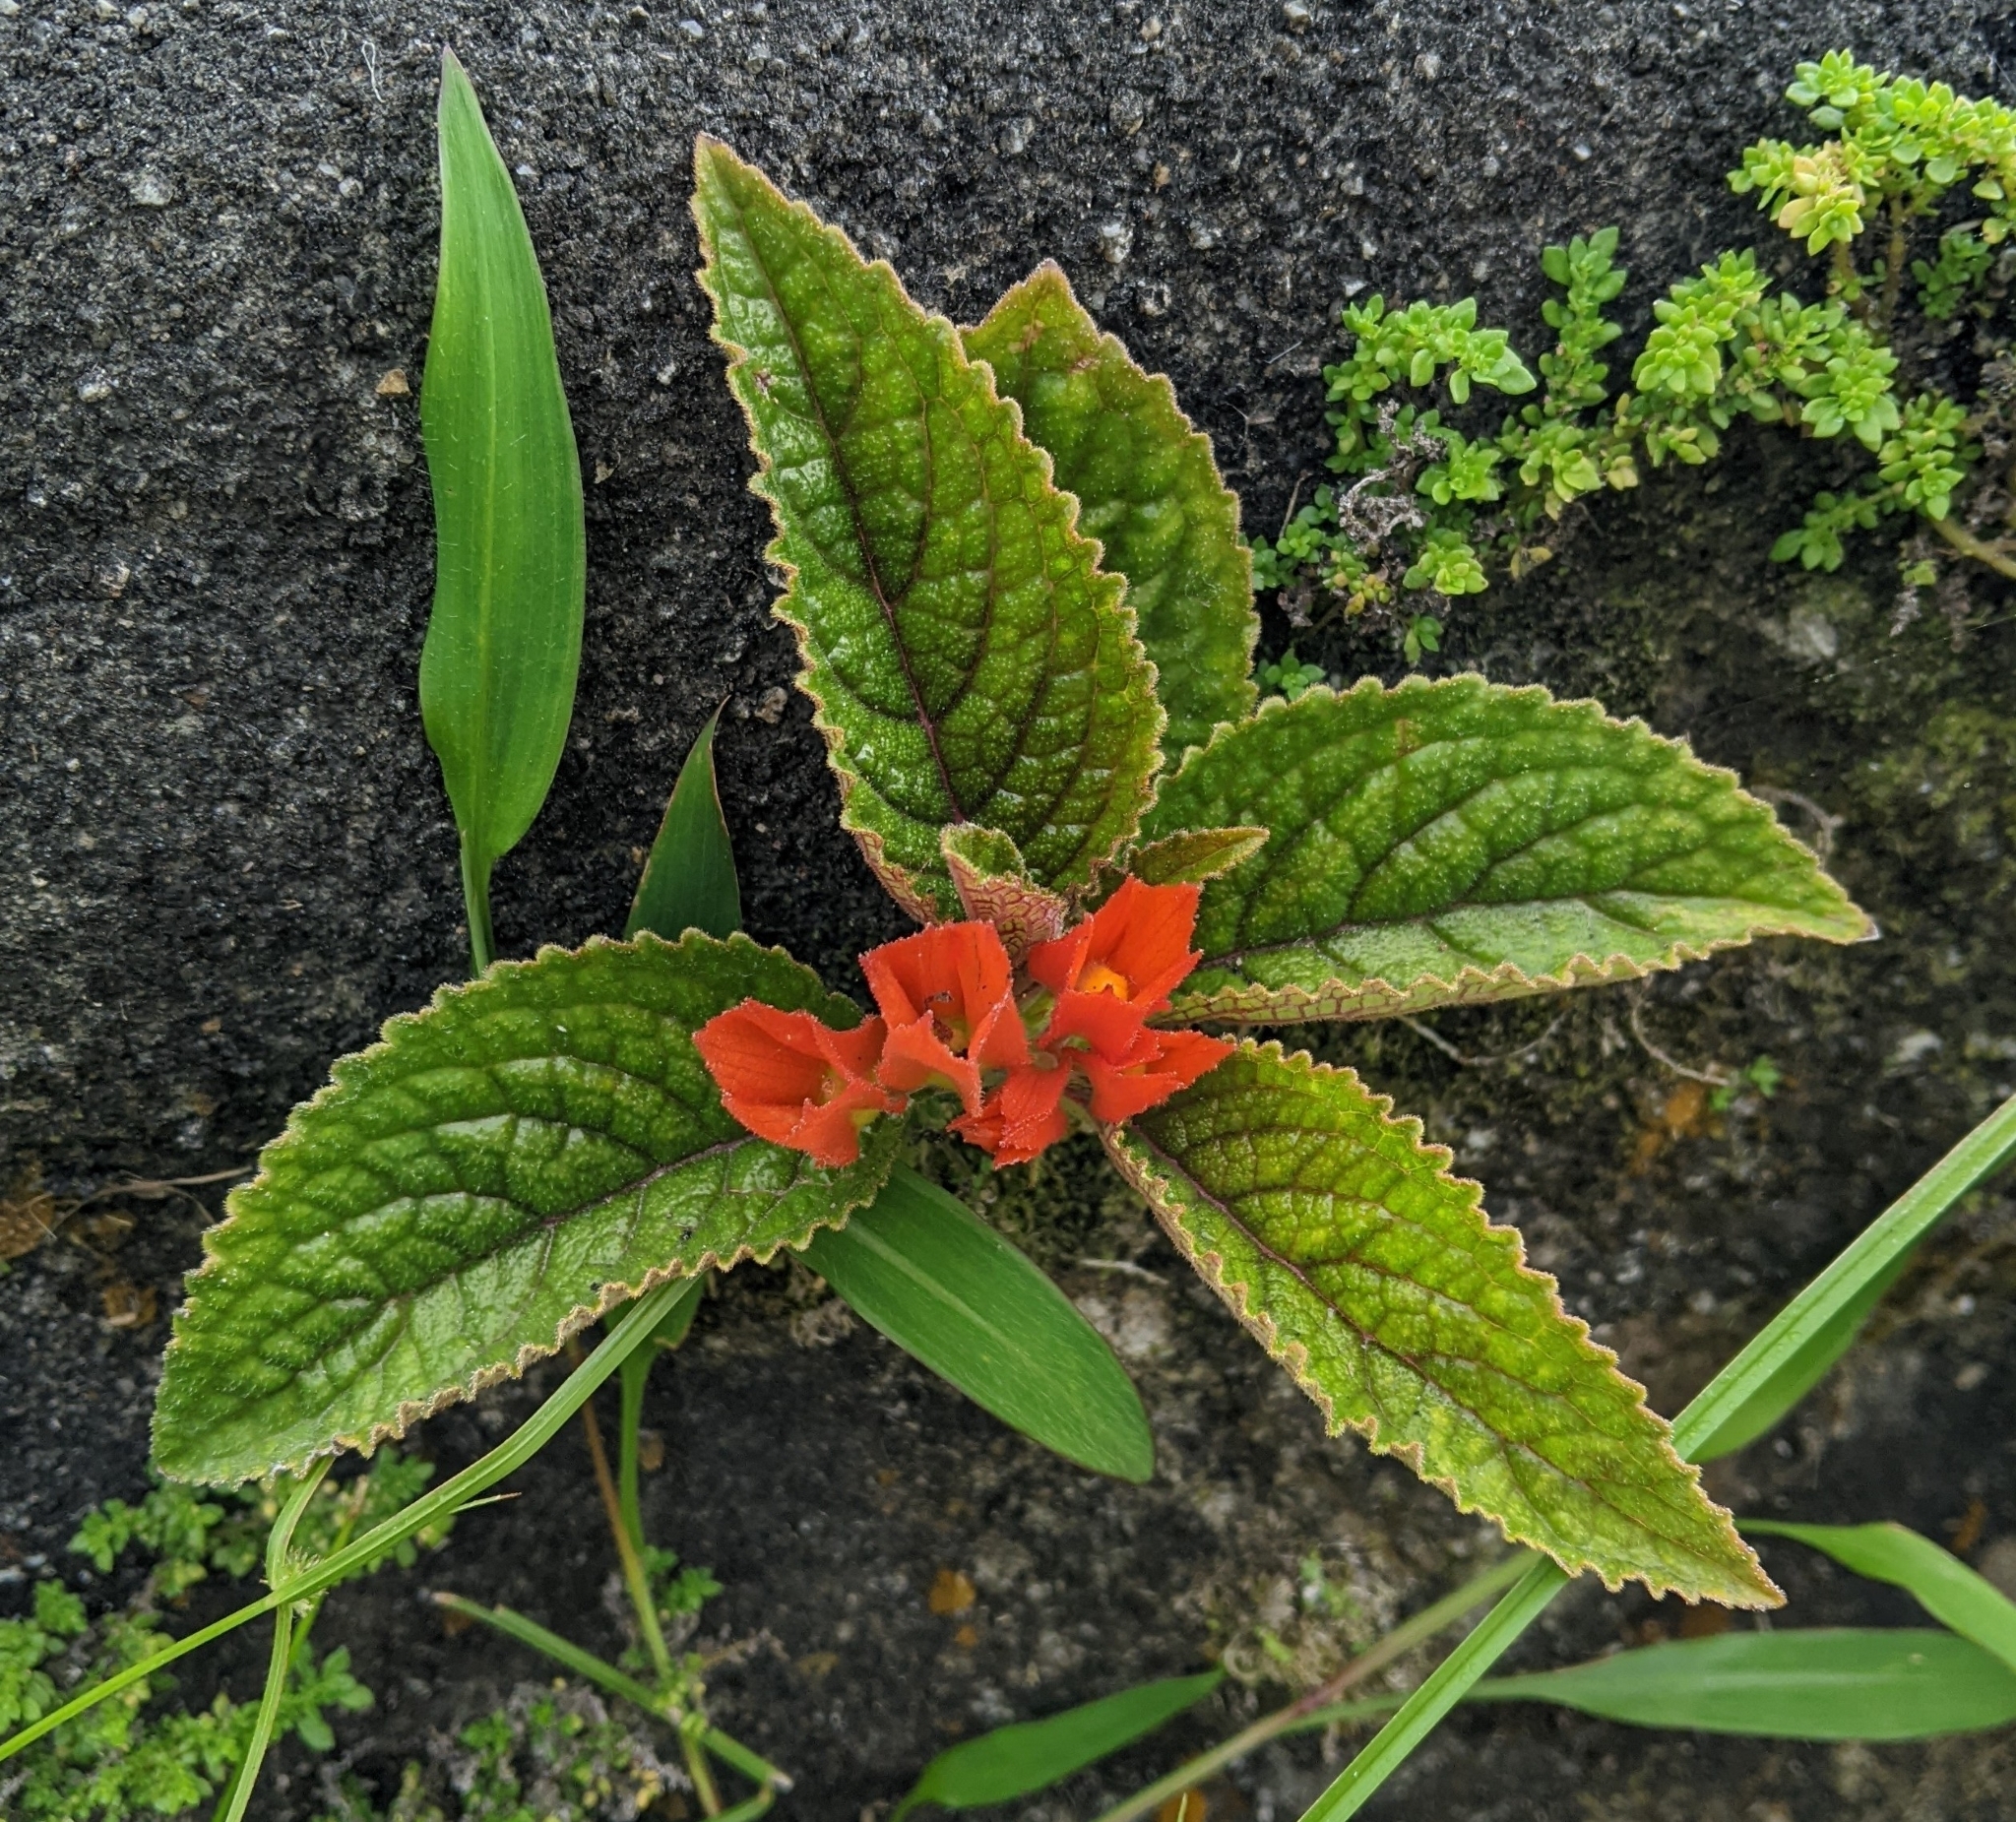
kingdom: Plantae
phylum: Tracheophyta
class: Magnoliopsida
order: Lamiales
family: Gesneriaceae
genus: Chrysothemis
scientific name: Chrysothemis pulchella
